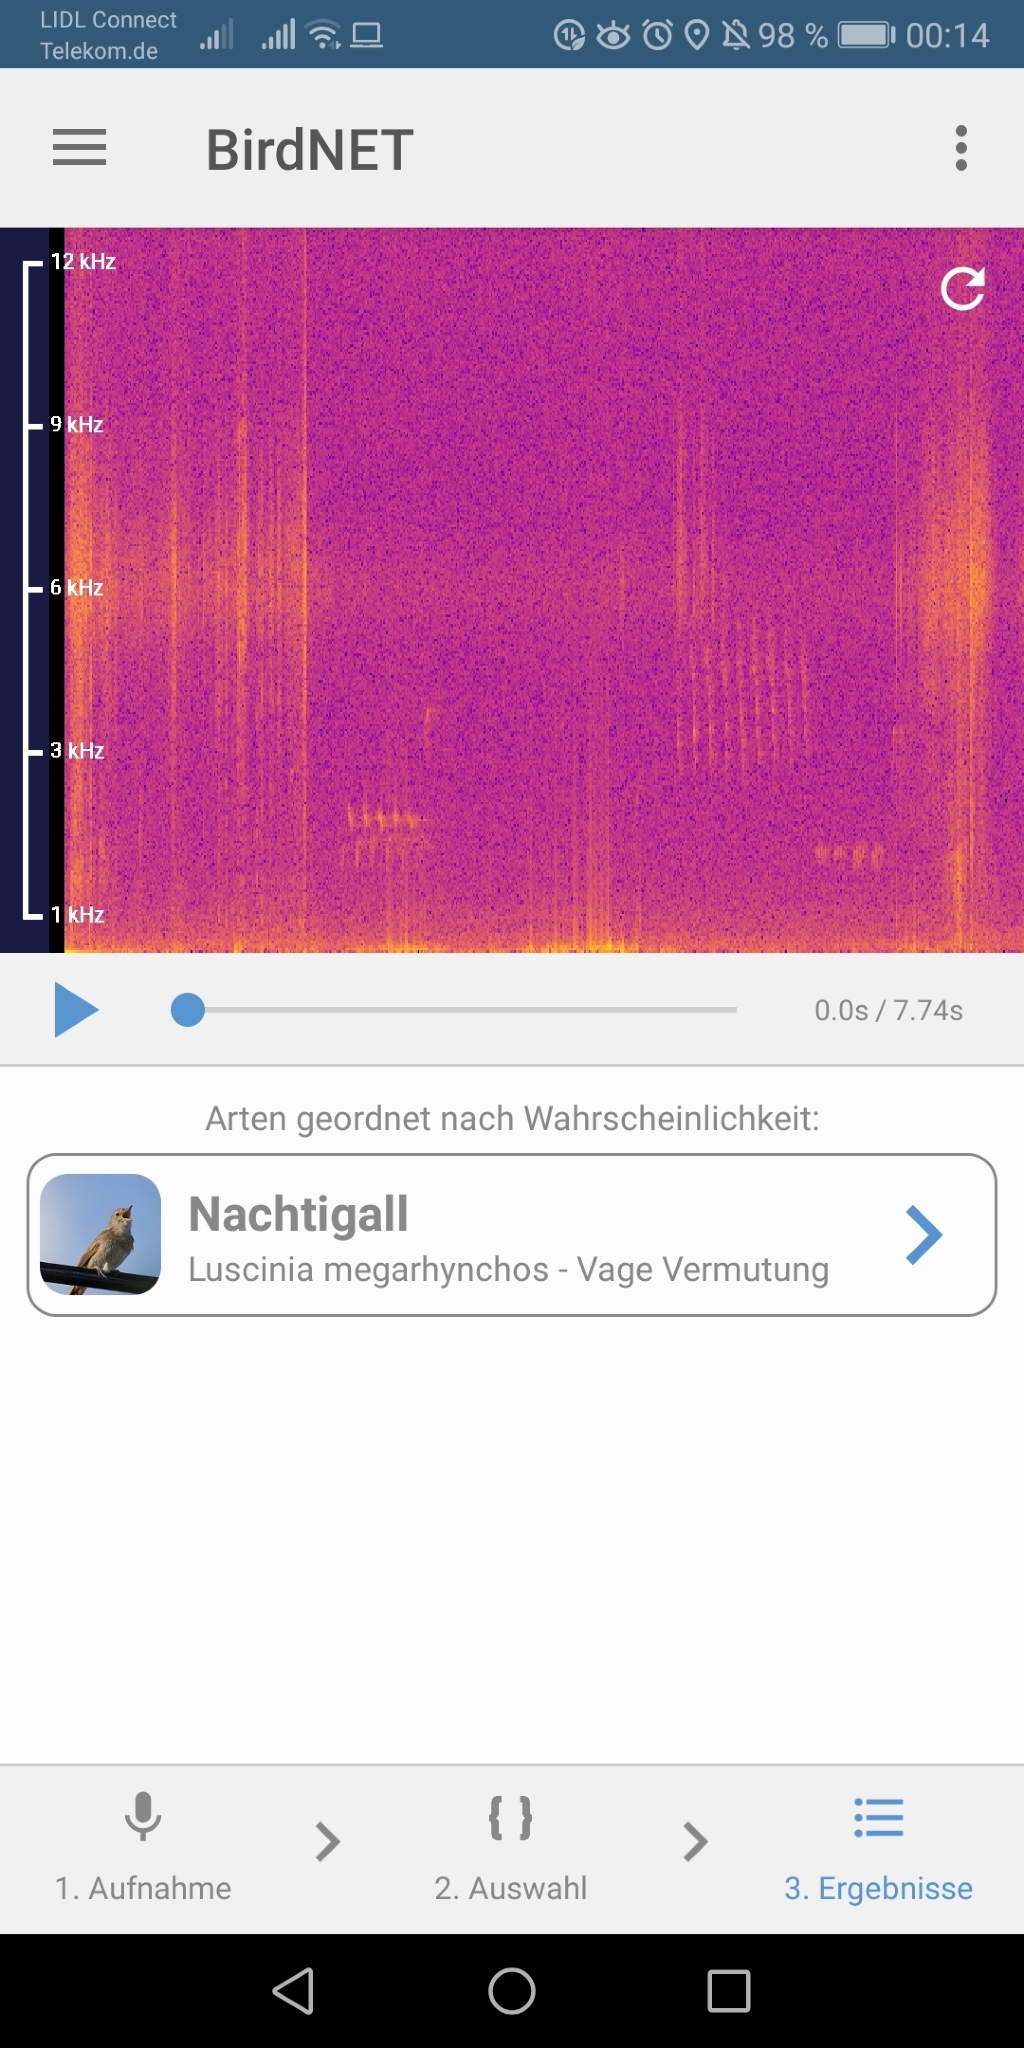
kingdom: Animalia
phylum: Chordata
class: Aves
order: Passeriformes
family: Muscicapidae
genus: Luscinia
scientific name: Luscinia megarhynchos
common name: Common nightingale
